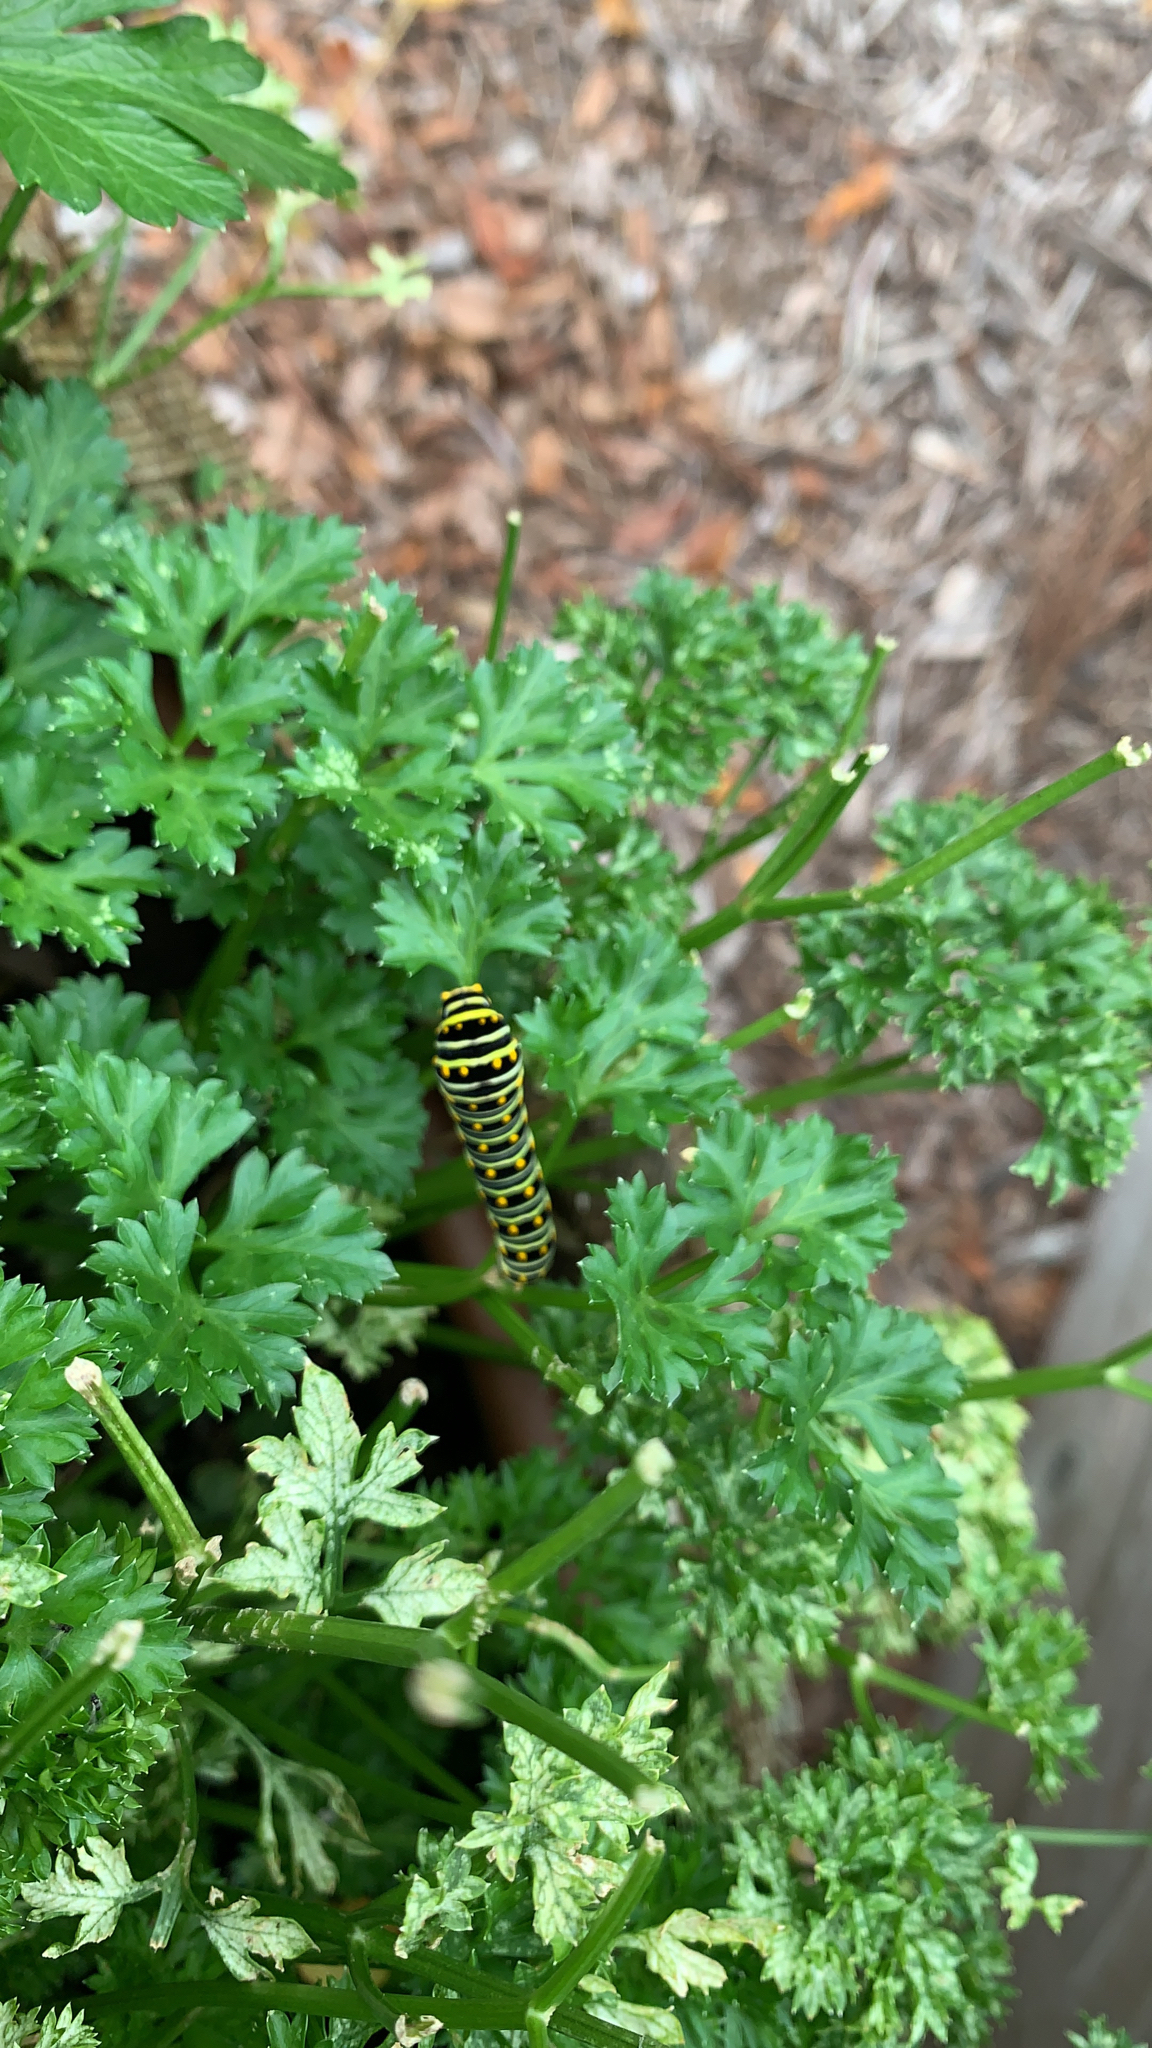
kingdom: Animalia
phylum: Arthropoda
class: Insecta
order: Lepidoptera
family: Papilionidae
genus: Papilio
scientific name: Papilio polyxenes
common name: Black swallowtail
